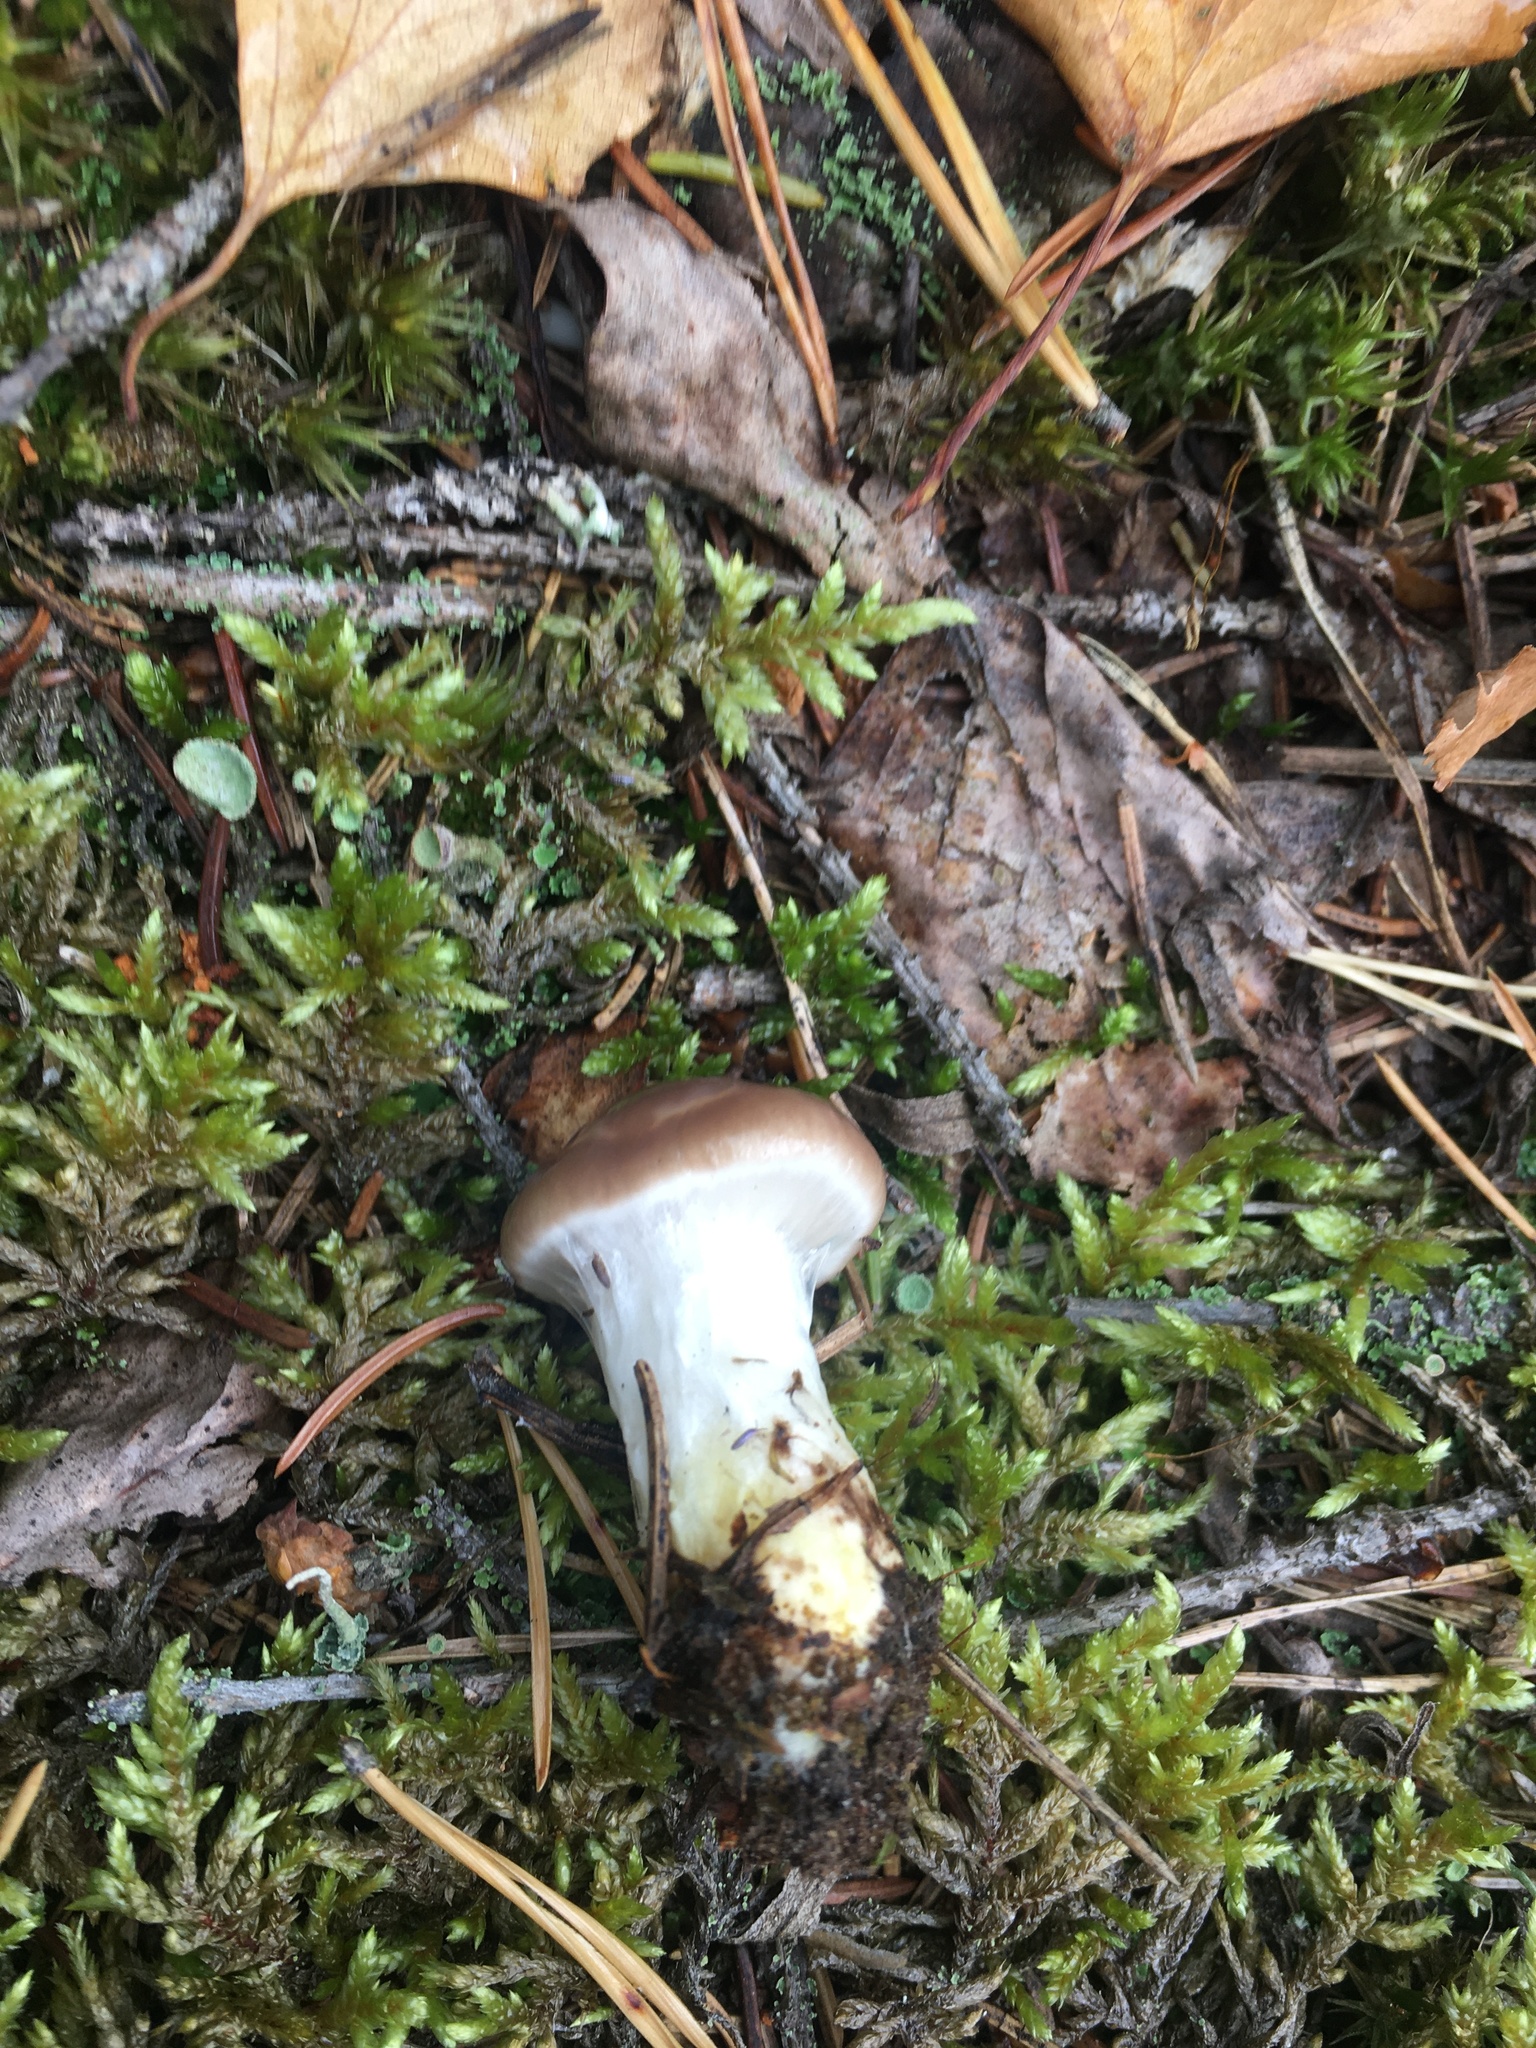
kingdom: Fungi
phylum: Basidiomycota
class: Agaricomycetes
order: Boletales
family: Gomphidiaceae
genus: Gomphidius
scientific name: Gomphidius glutinosus
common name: Slimy spike
